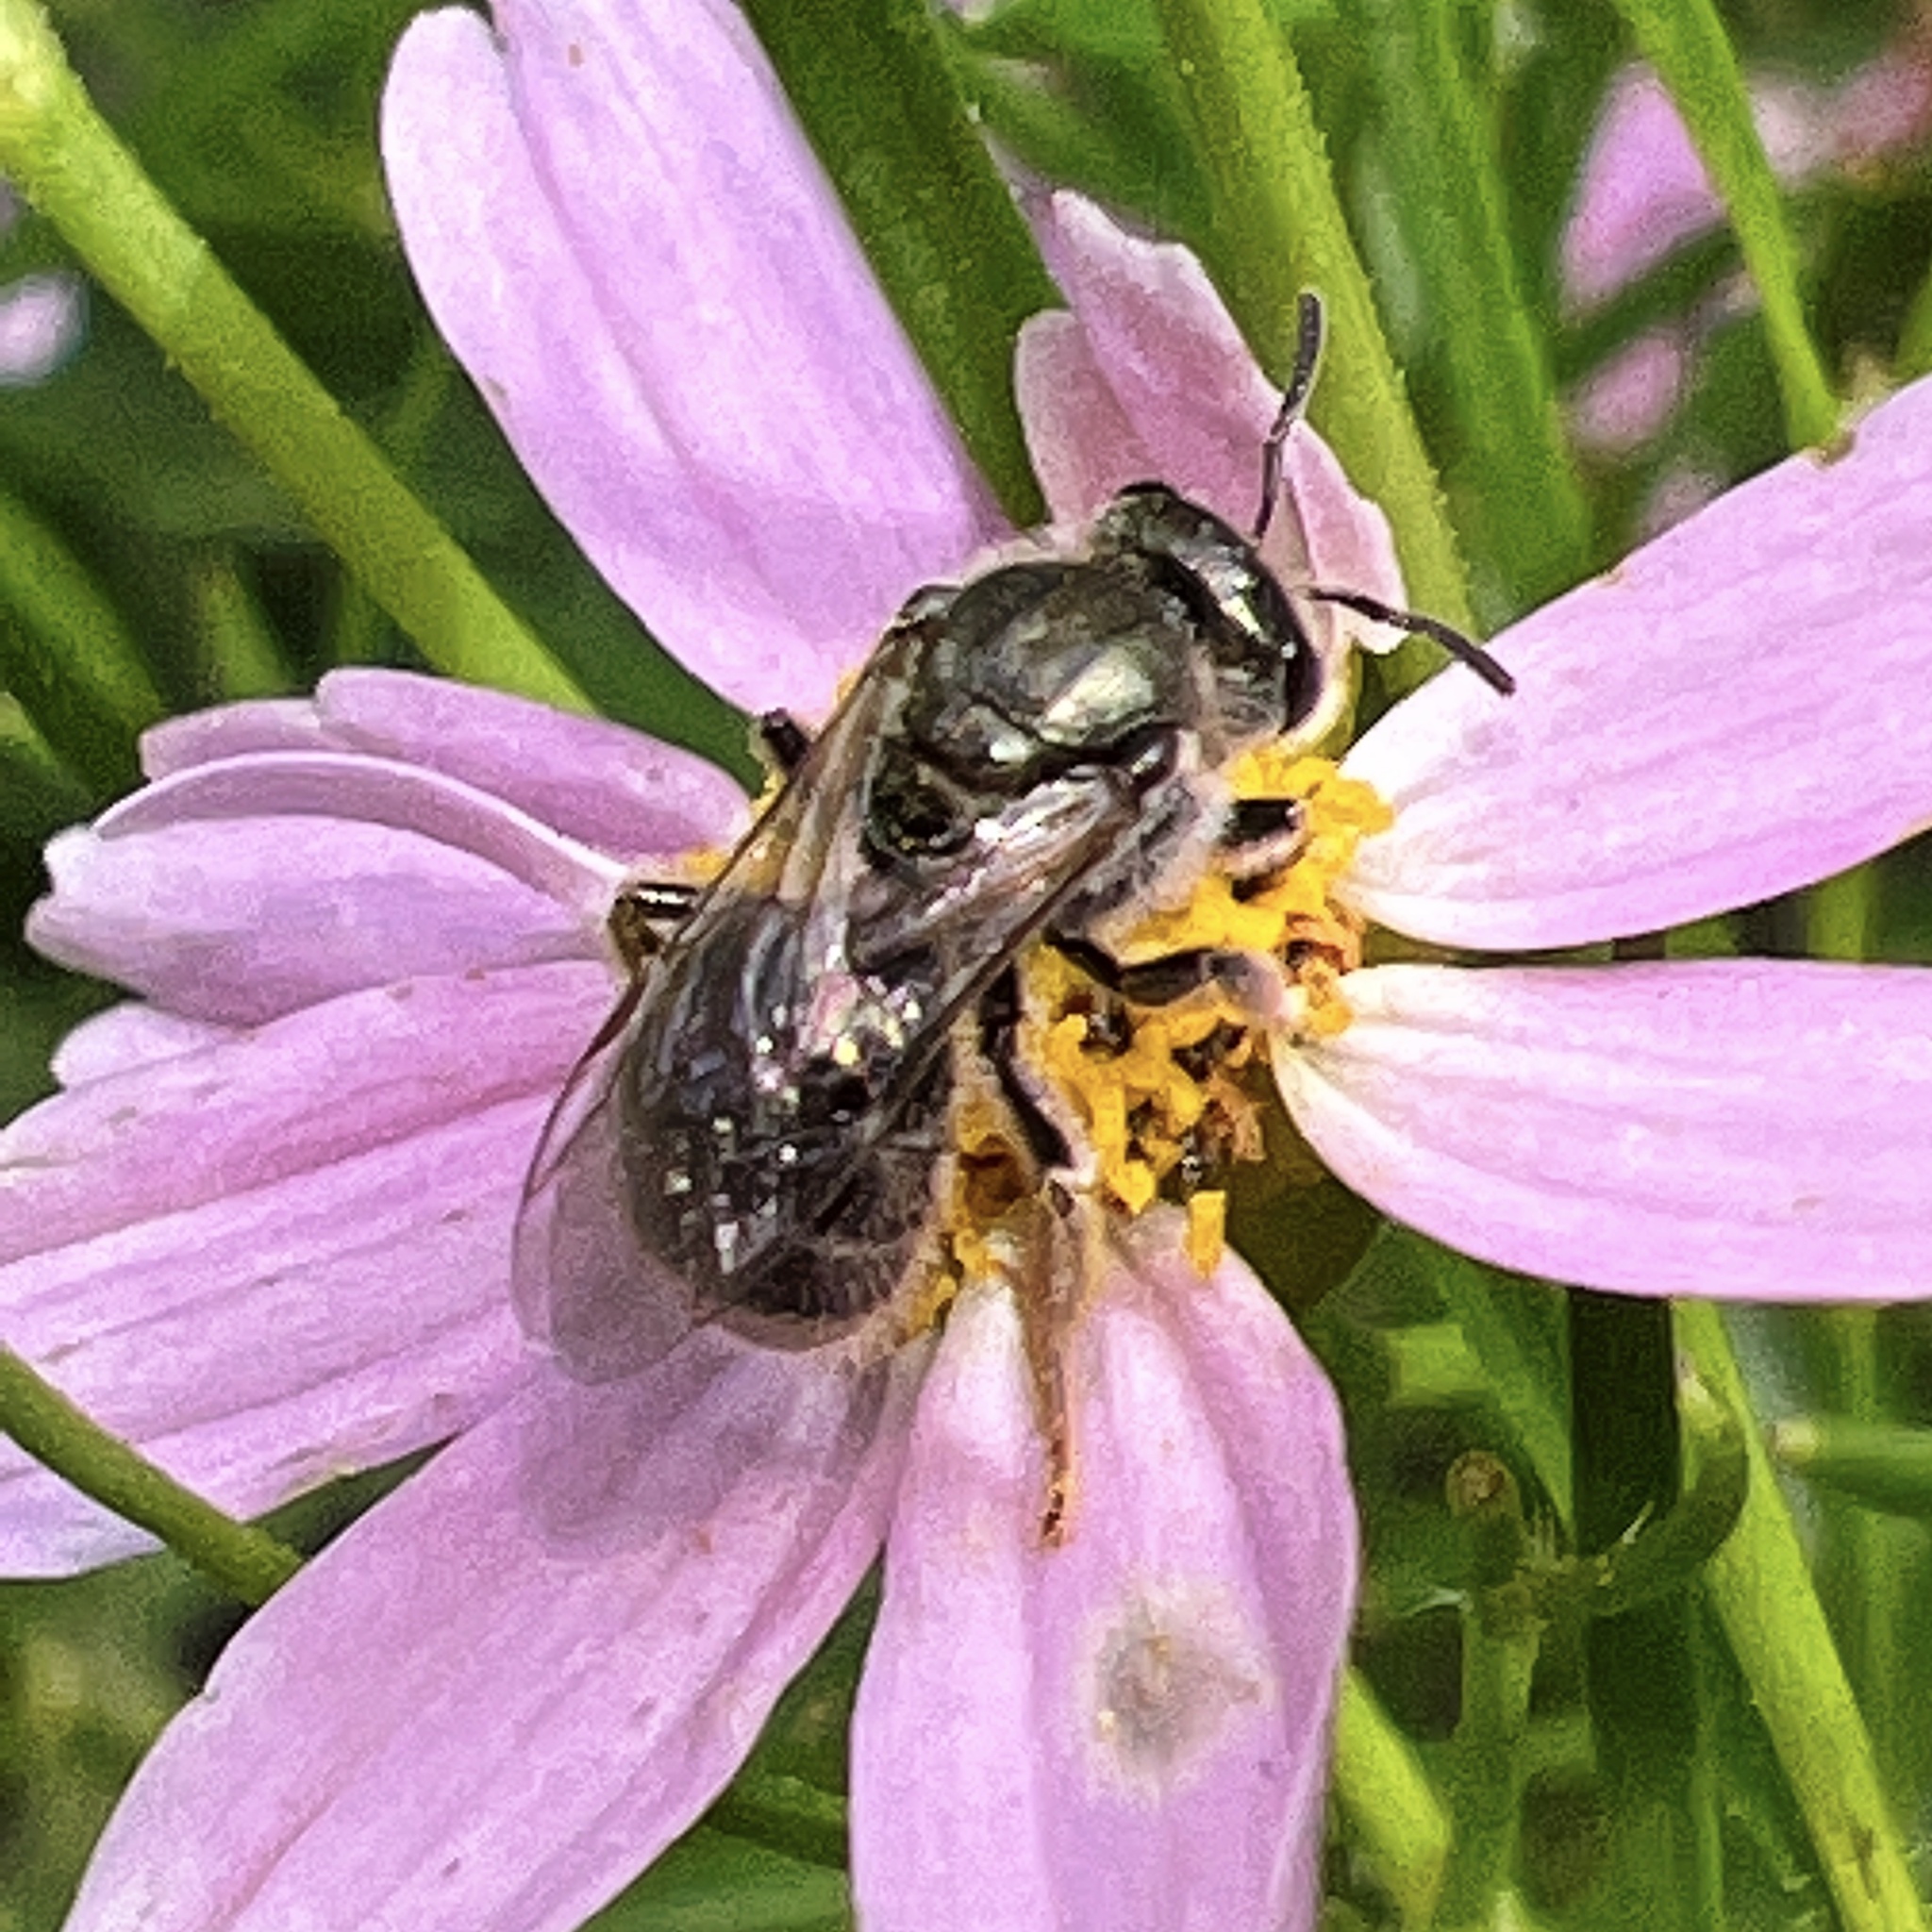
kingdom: Animalia
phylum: Arthropoda
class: Insecta
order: Hymenoptera
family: Halictidae
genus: Dialictus
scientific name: Dialictus
